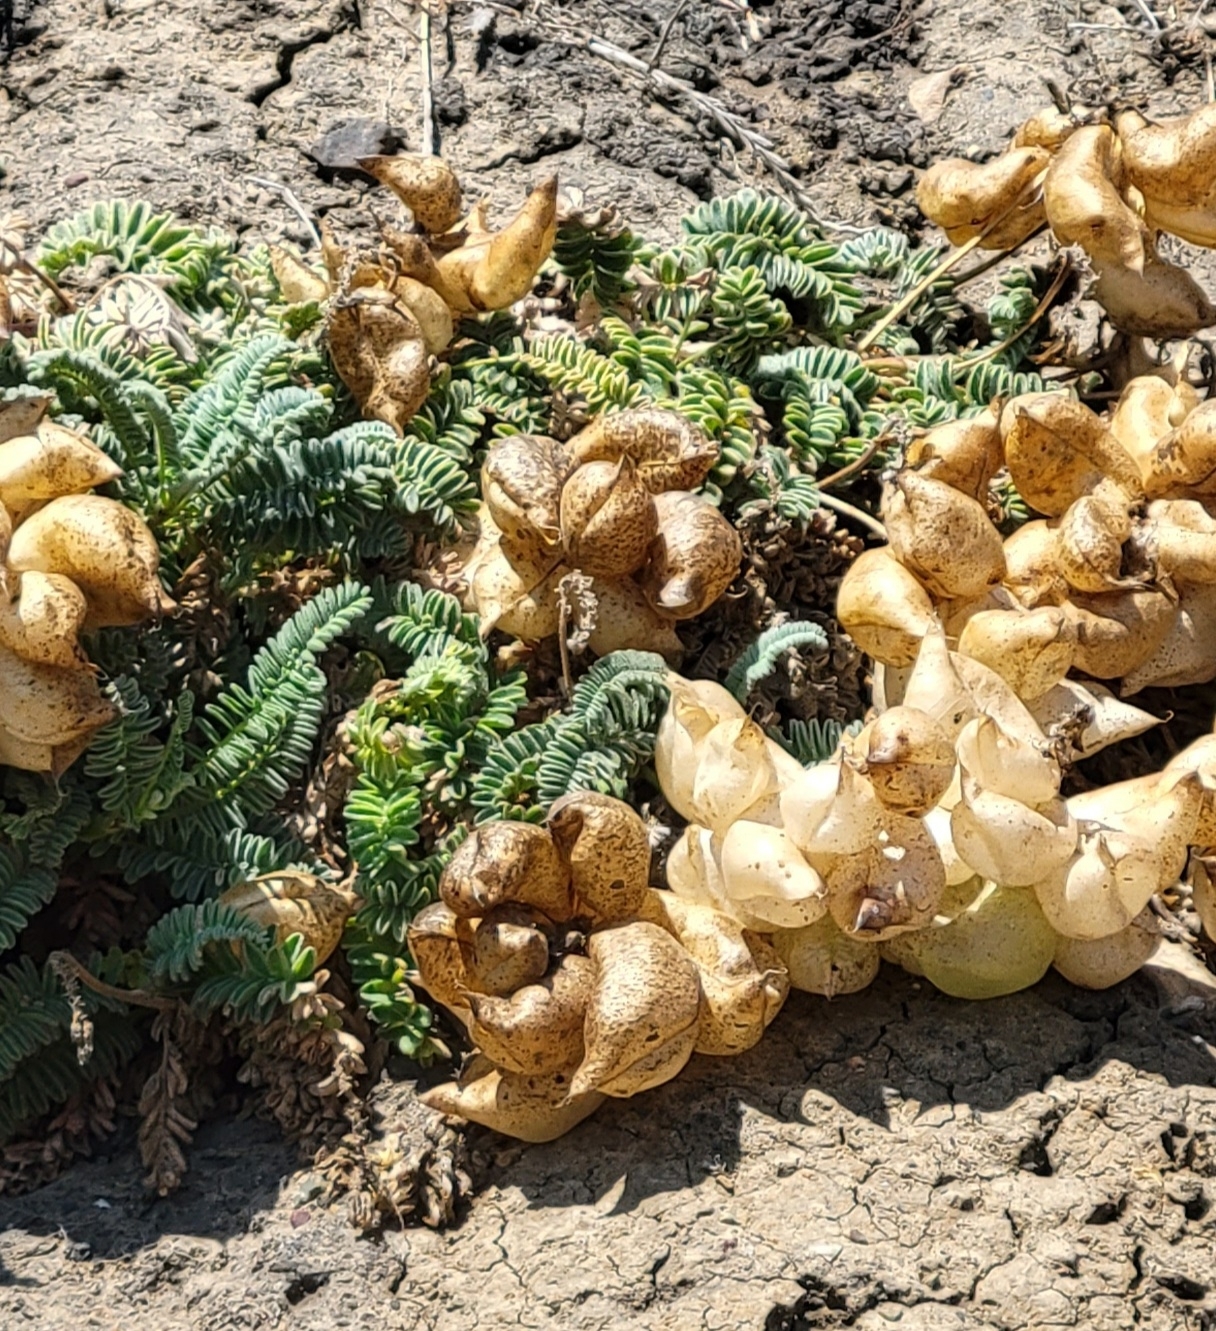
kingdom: Plantae
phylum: Tracheophyta
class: Magnoliopsida
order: Fabales
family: Fabaceae
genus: Astragalus
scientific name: Astragalus nuttallii
